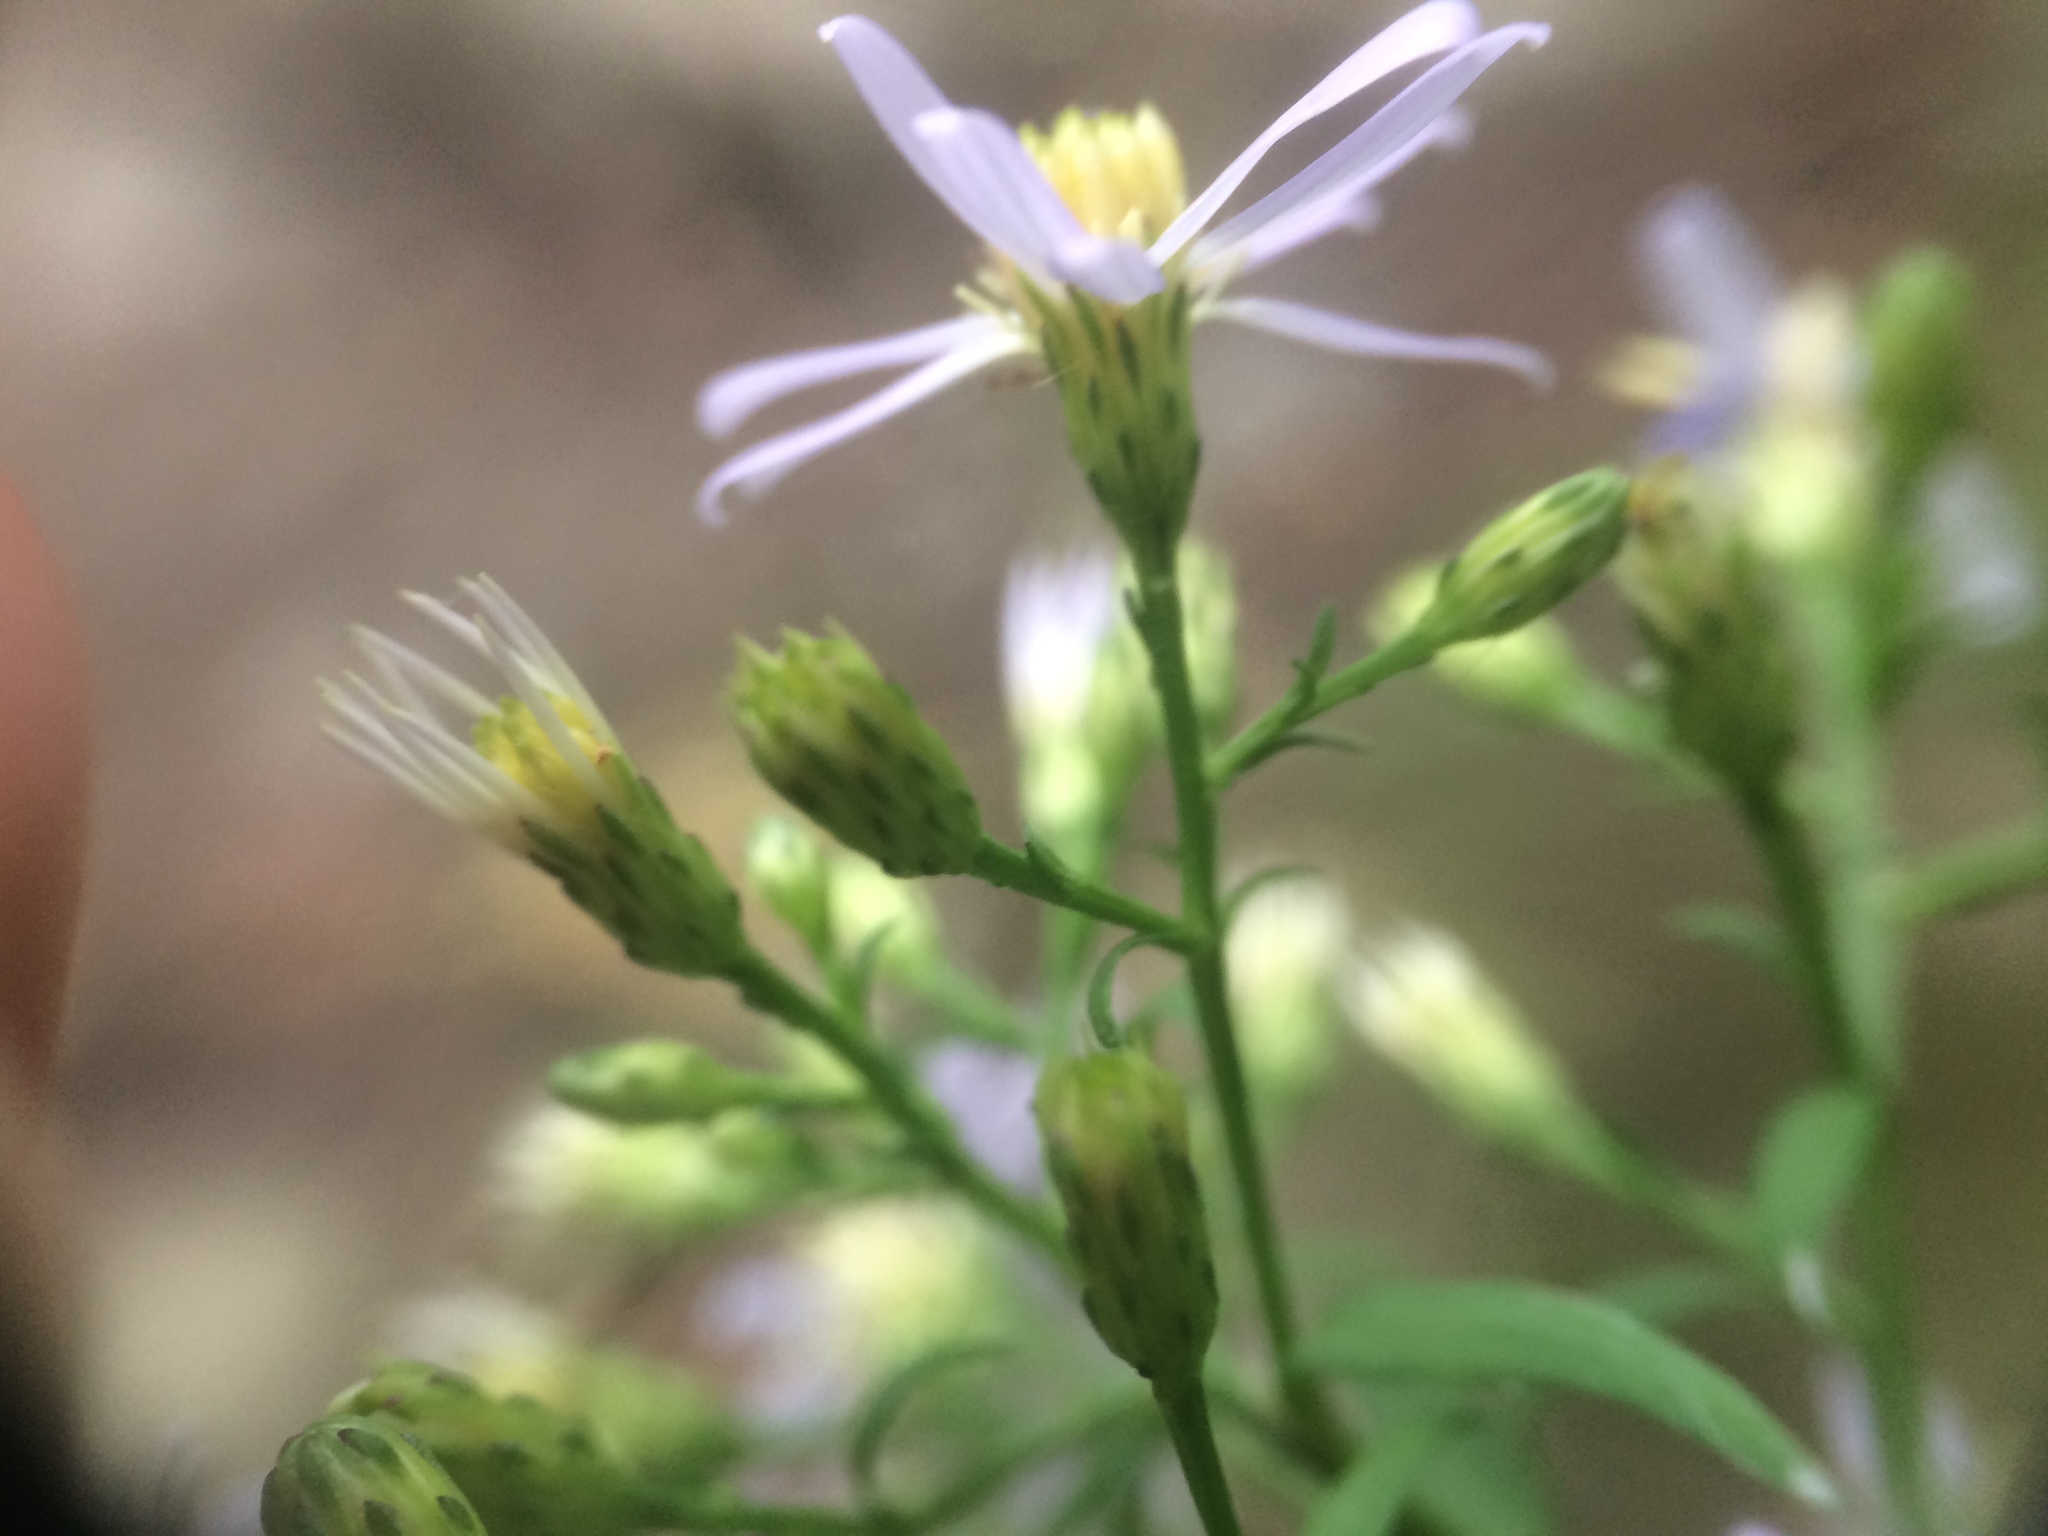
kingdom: Plantae
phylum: Tracheophyta
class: Magnoliopsida
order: Asterales
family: Asteraceae
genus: Symphyotrichum
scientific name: Symphyotrichum cordifolium
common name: Beeweed
